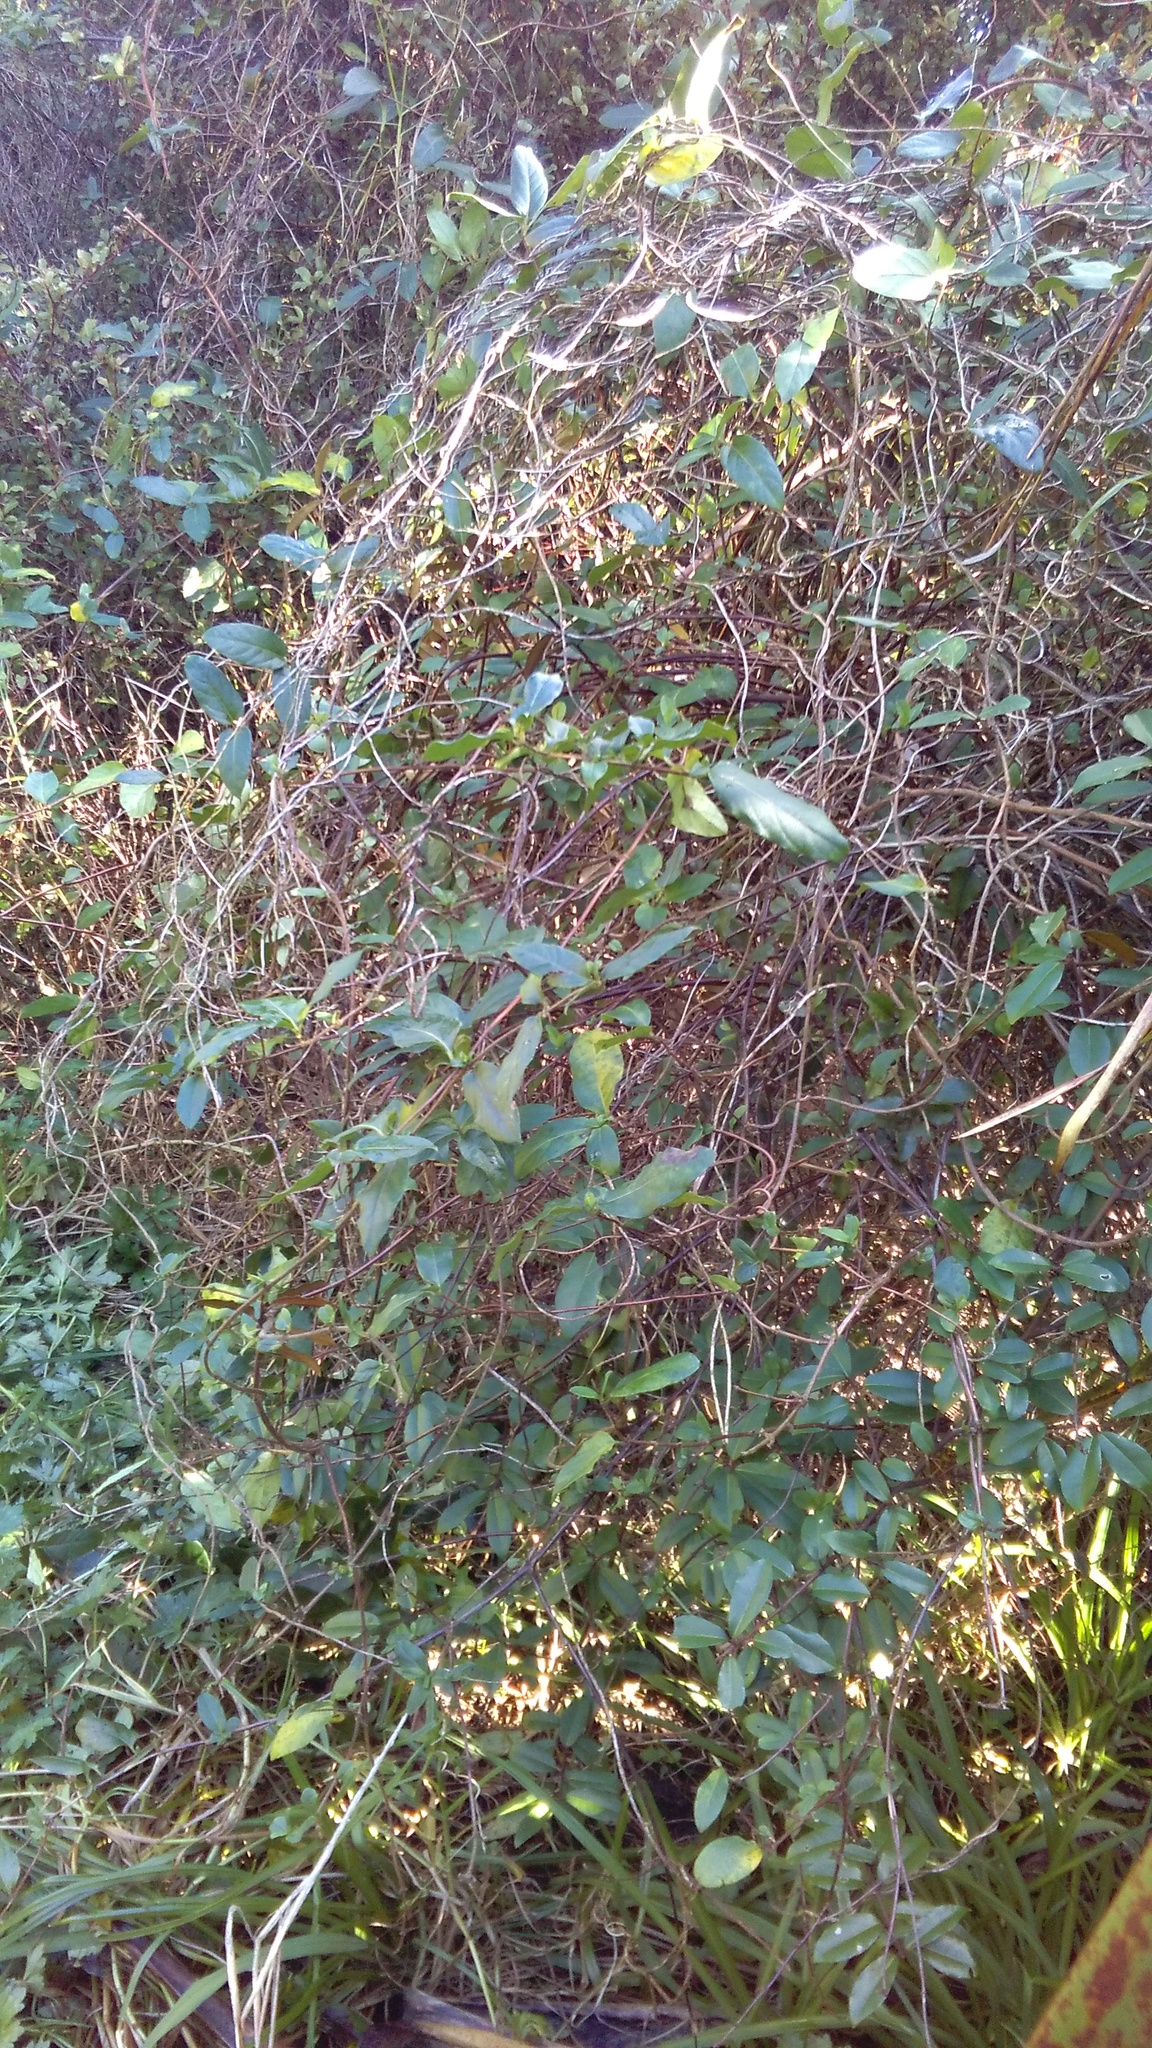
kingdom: Plantae
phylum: Tracheophyta
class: Magnoliopsida
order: Rosales
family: Elaeagnaceae
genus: Elaeagnus
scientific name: Elaeagnus reflexa
